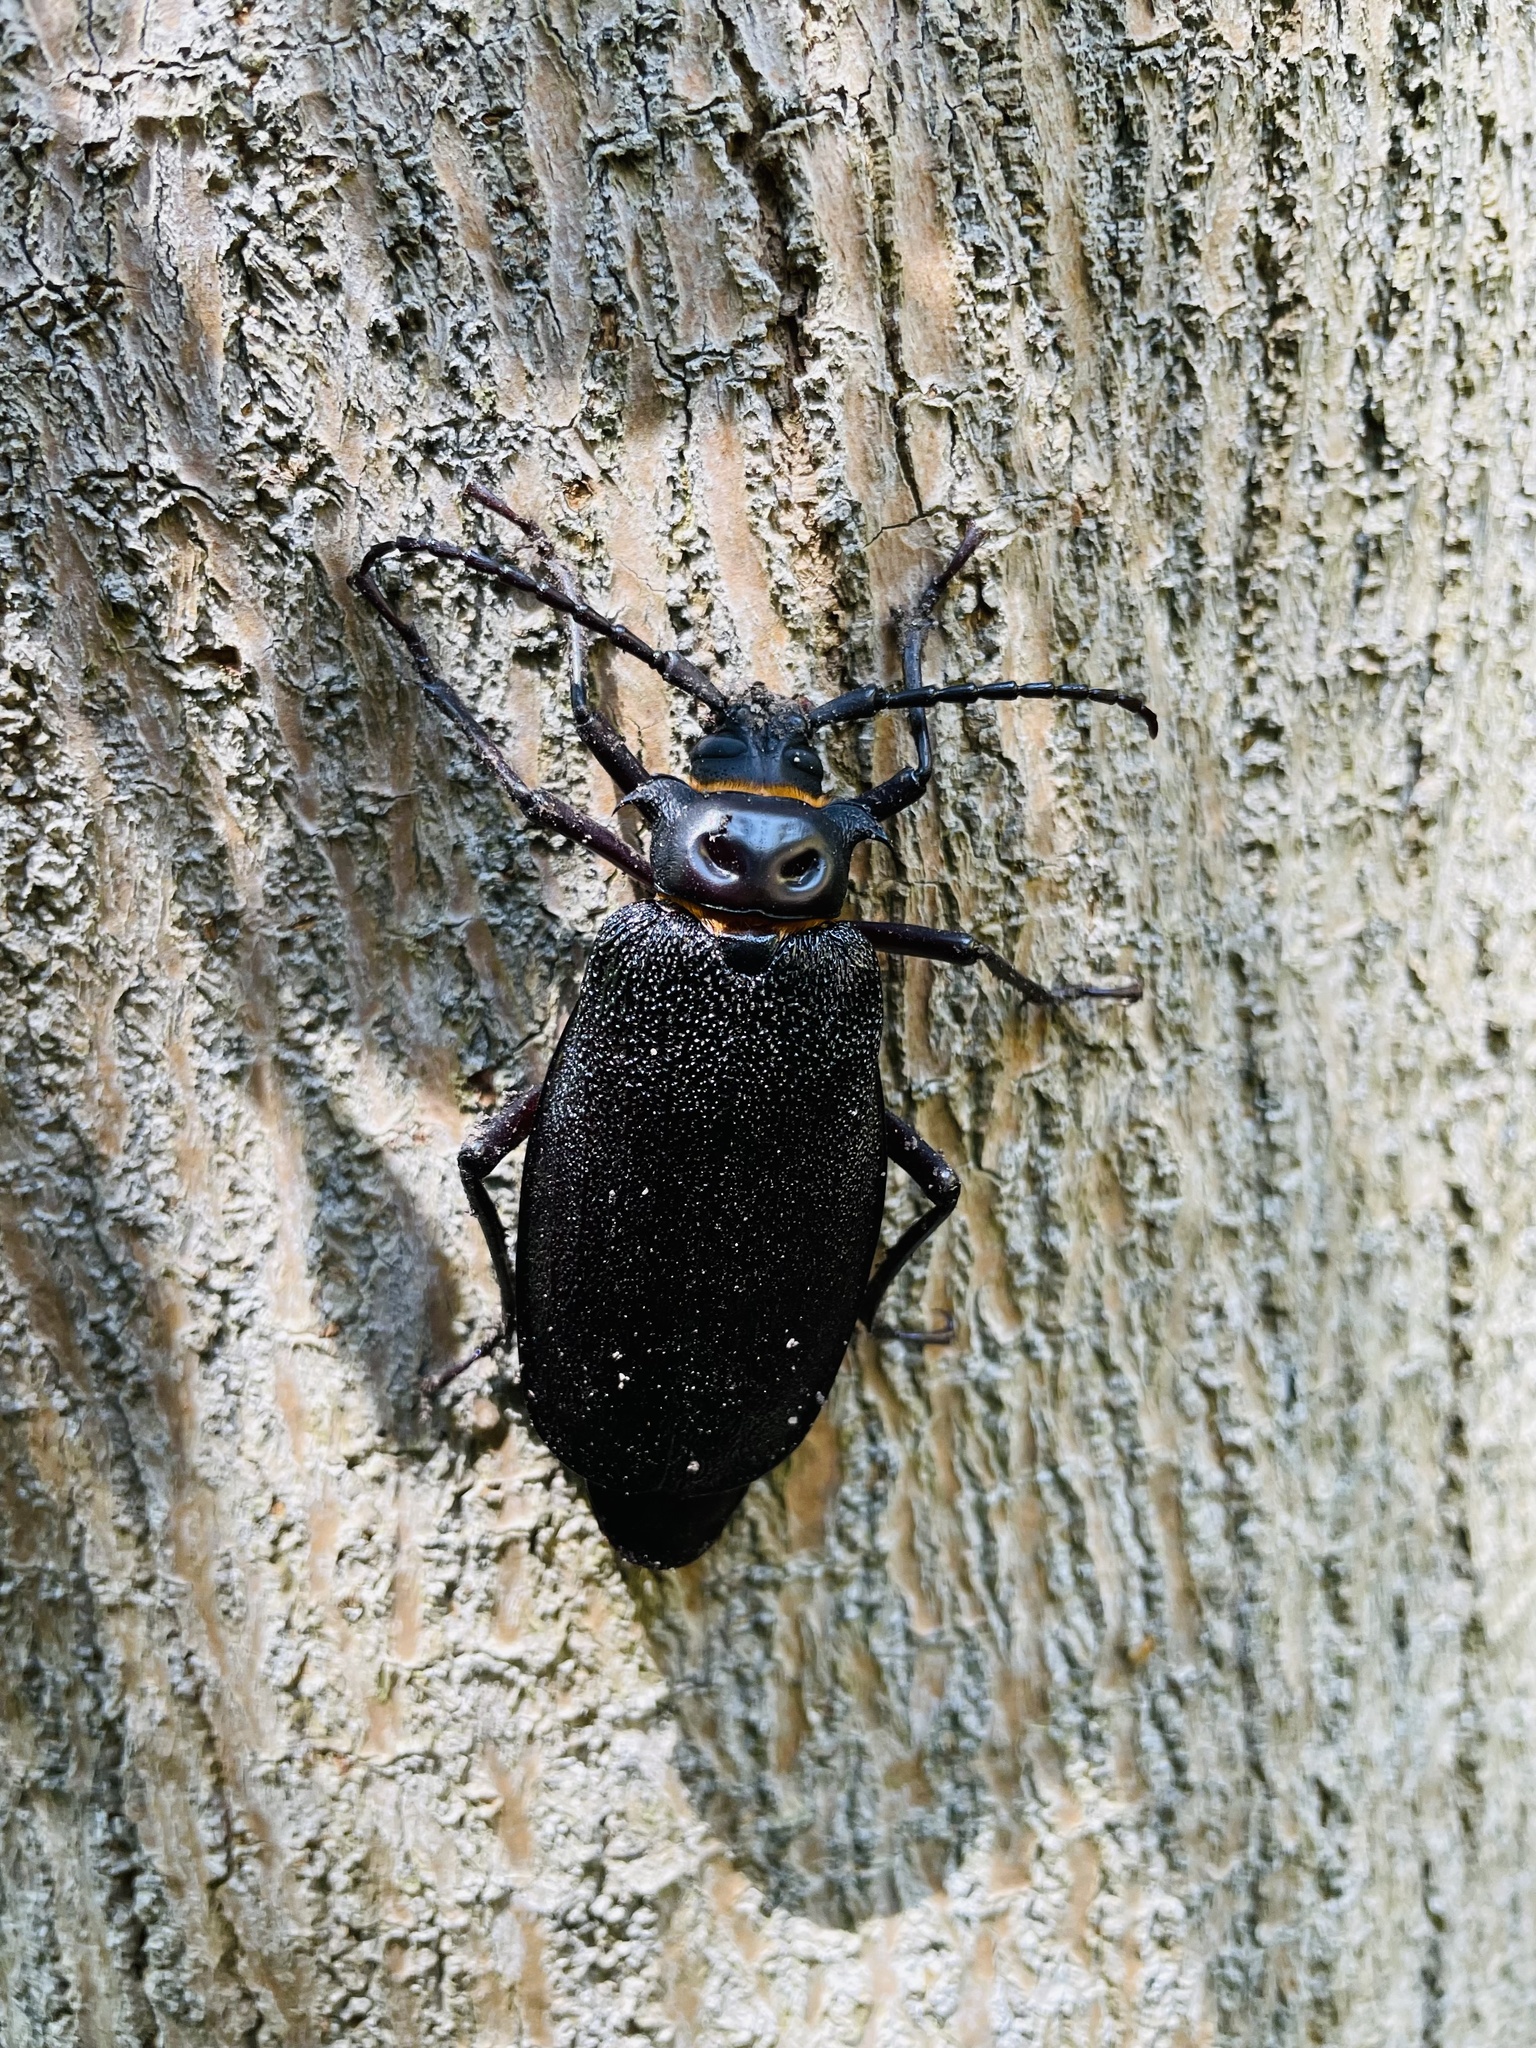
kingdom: Animalia
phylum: Arthropoda
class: Insecta
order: Coleoptera
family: Cerambycidae
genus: Acanthinodera
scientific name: Acanthinodera cumingii
